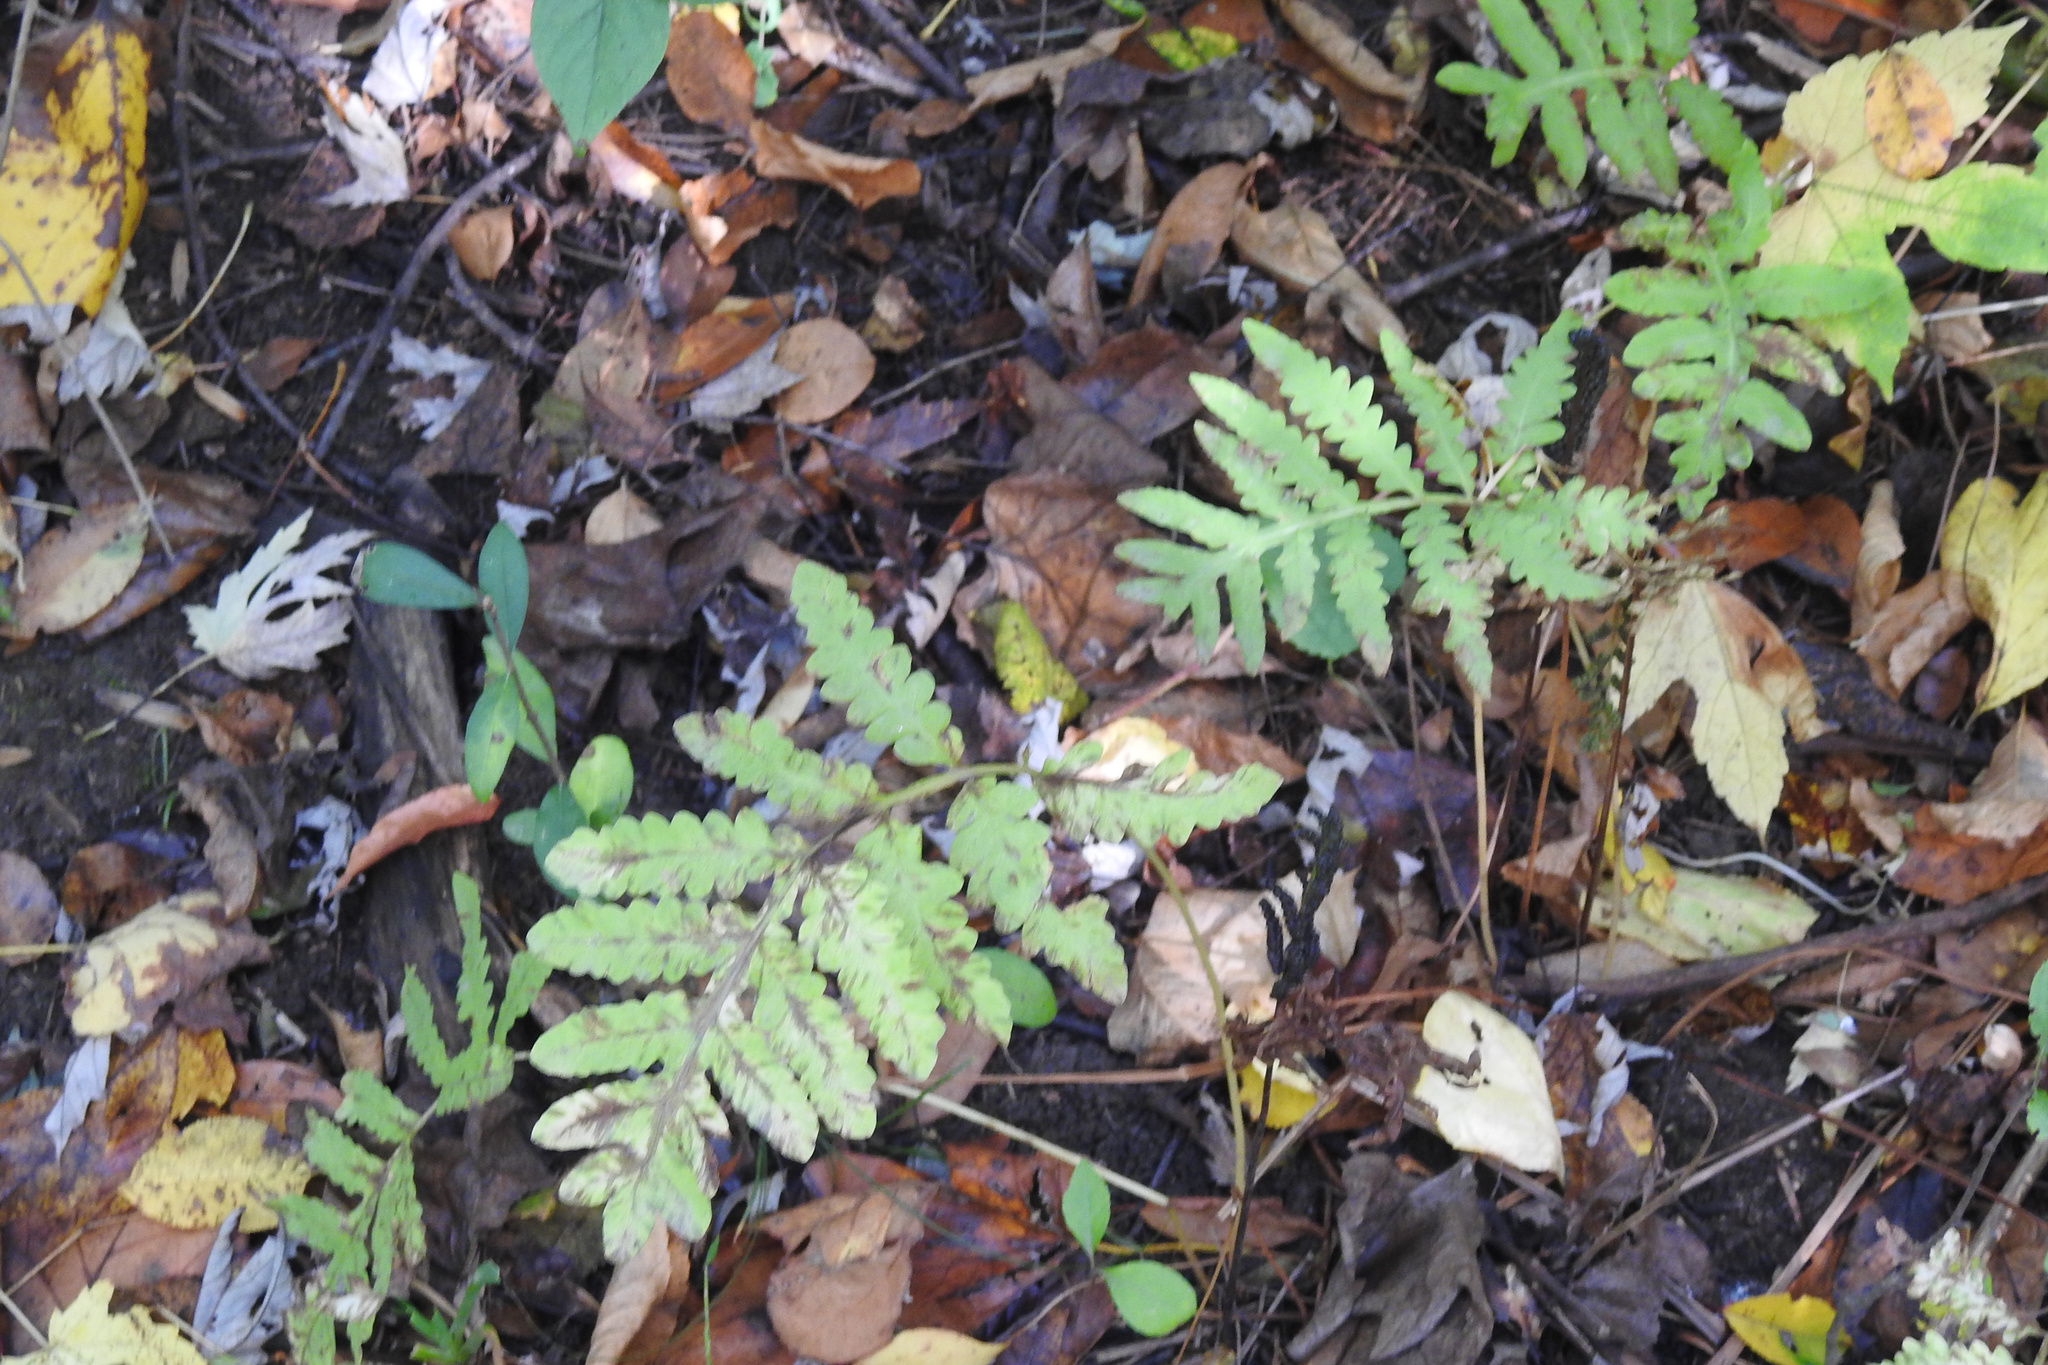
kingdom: Plantae
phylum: Tracheophyta
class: Polypodiopsida
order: Polypodiales
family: Onocleaceae
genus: Onoclea
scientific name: Onoclea sensibilis
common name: Sensitive fern
